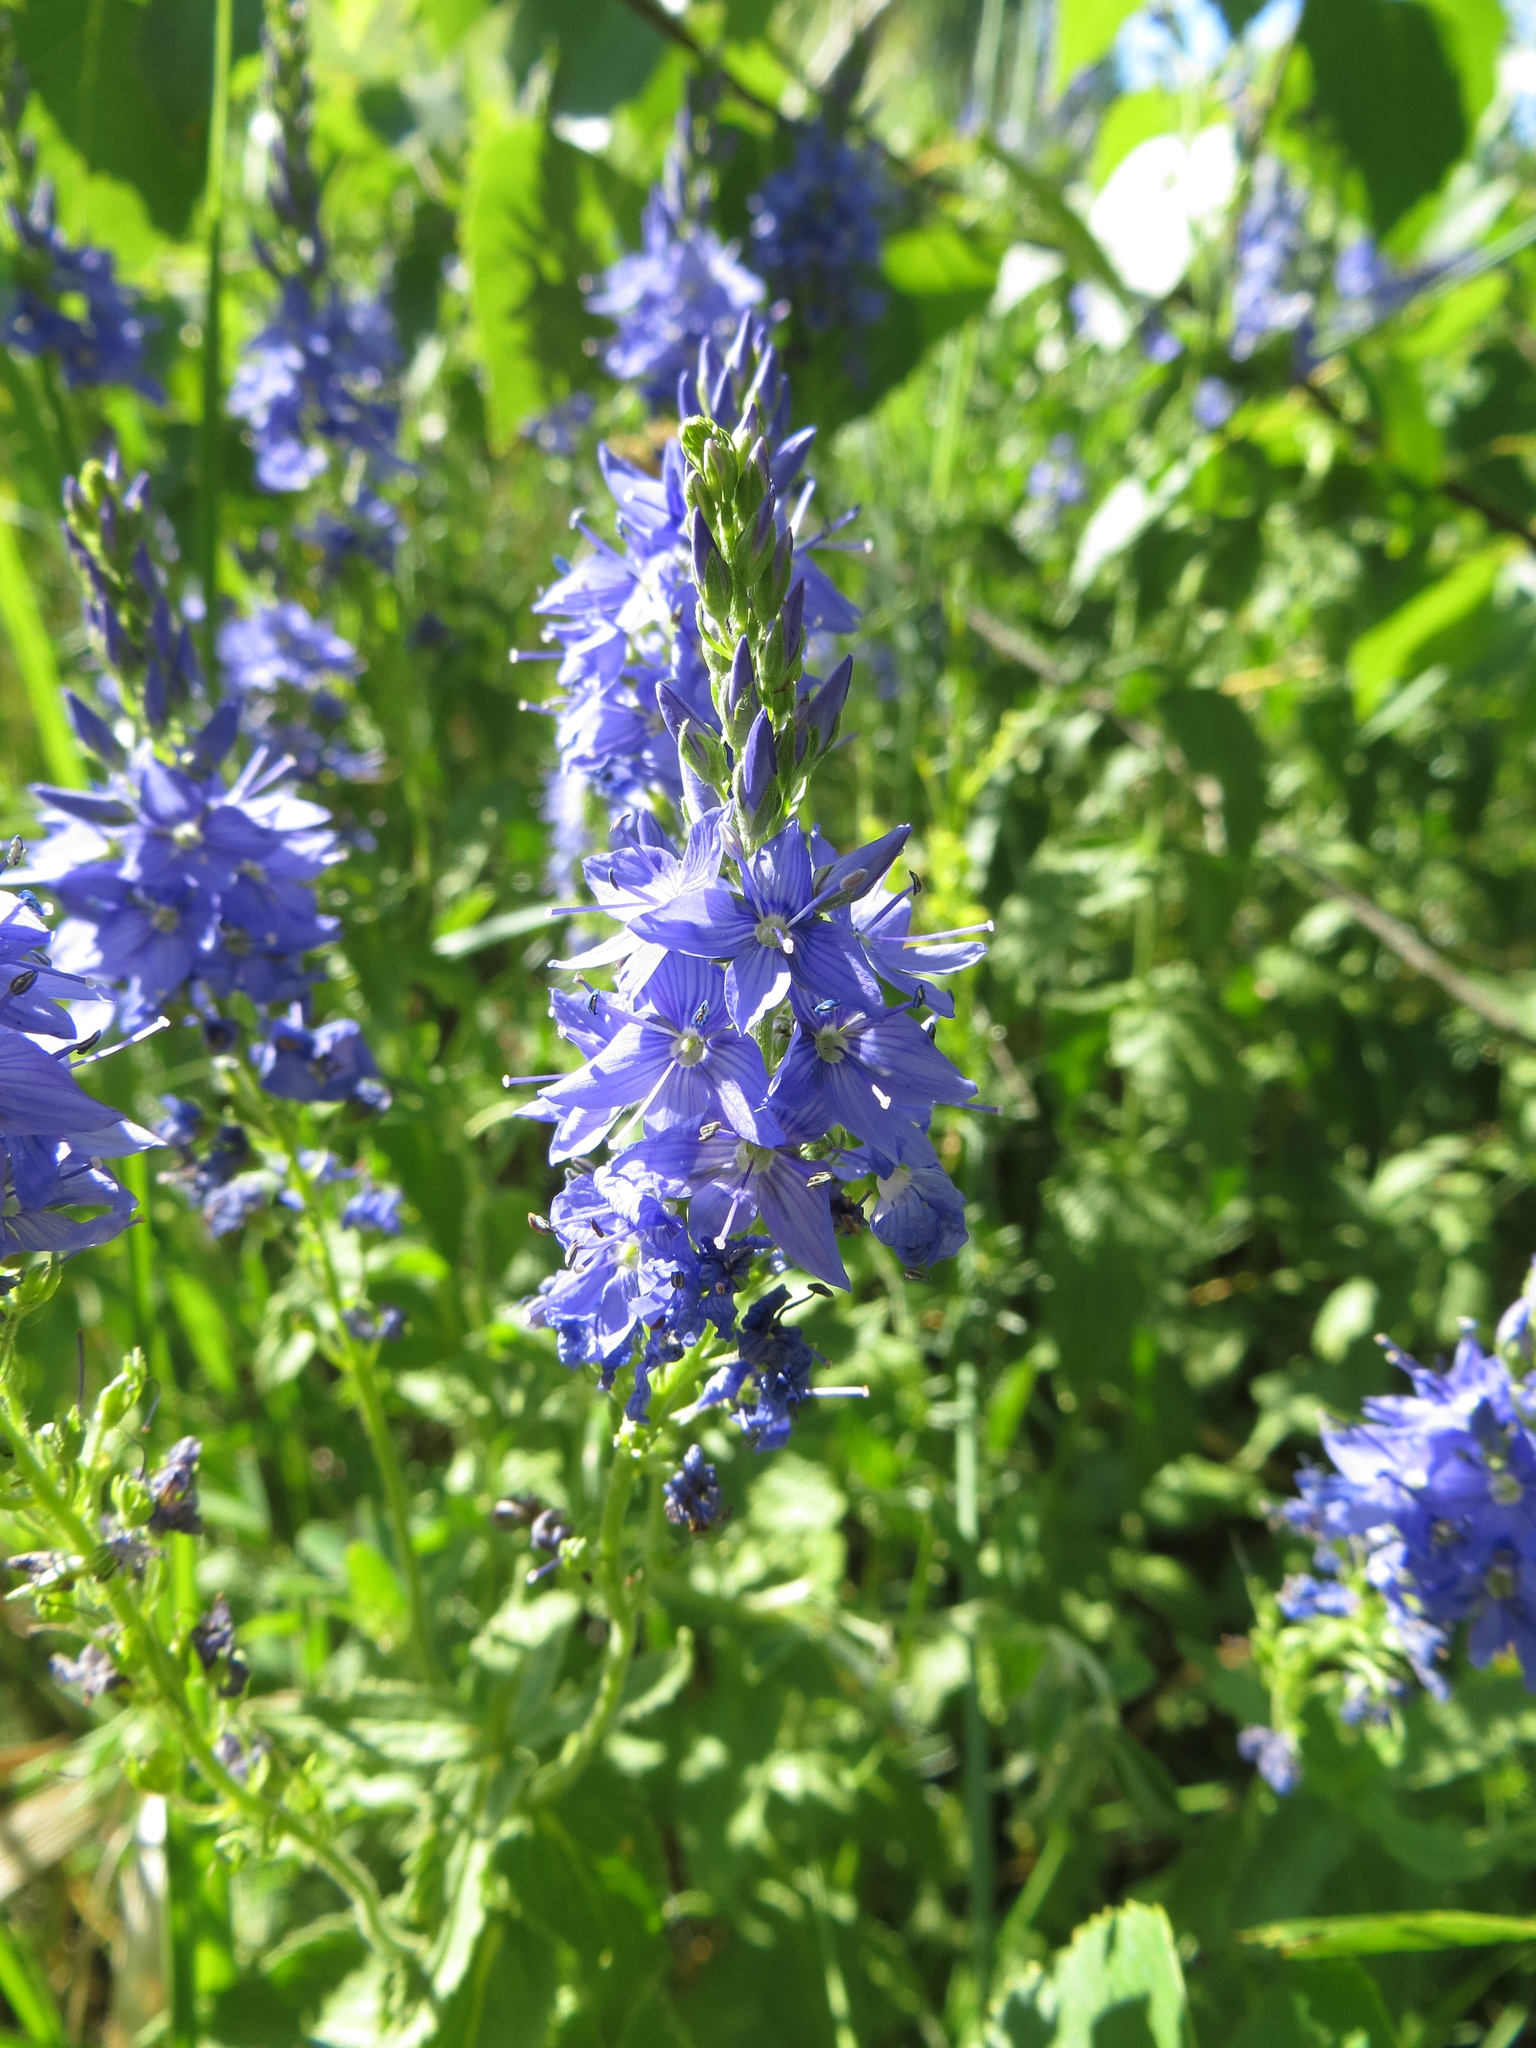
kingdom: Plantae
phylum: Tracheophyta
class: Magnoliopsida
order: Lamiales
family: Plantaginaceae
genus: Veronica
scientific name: Veronica teucrium
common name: Large speedwell
